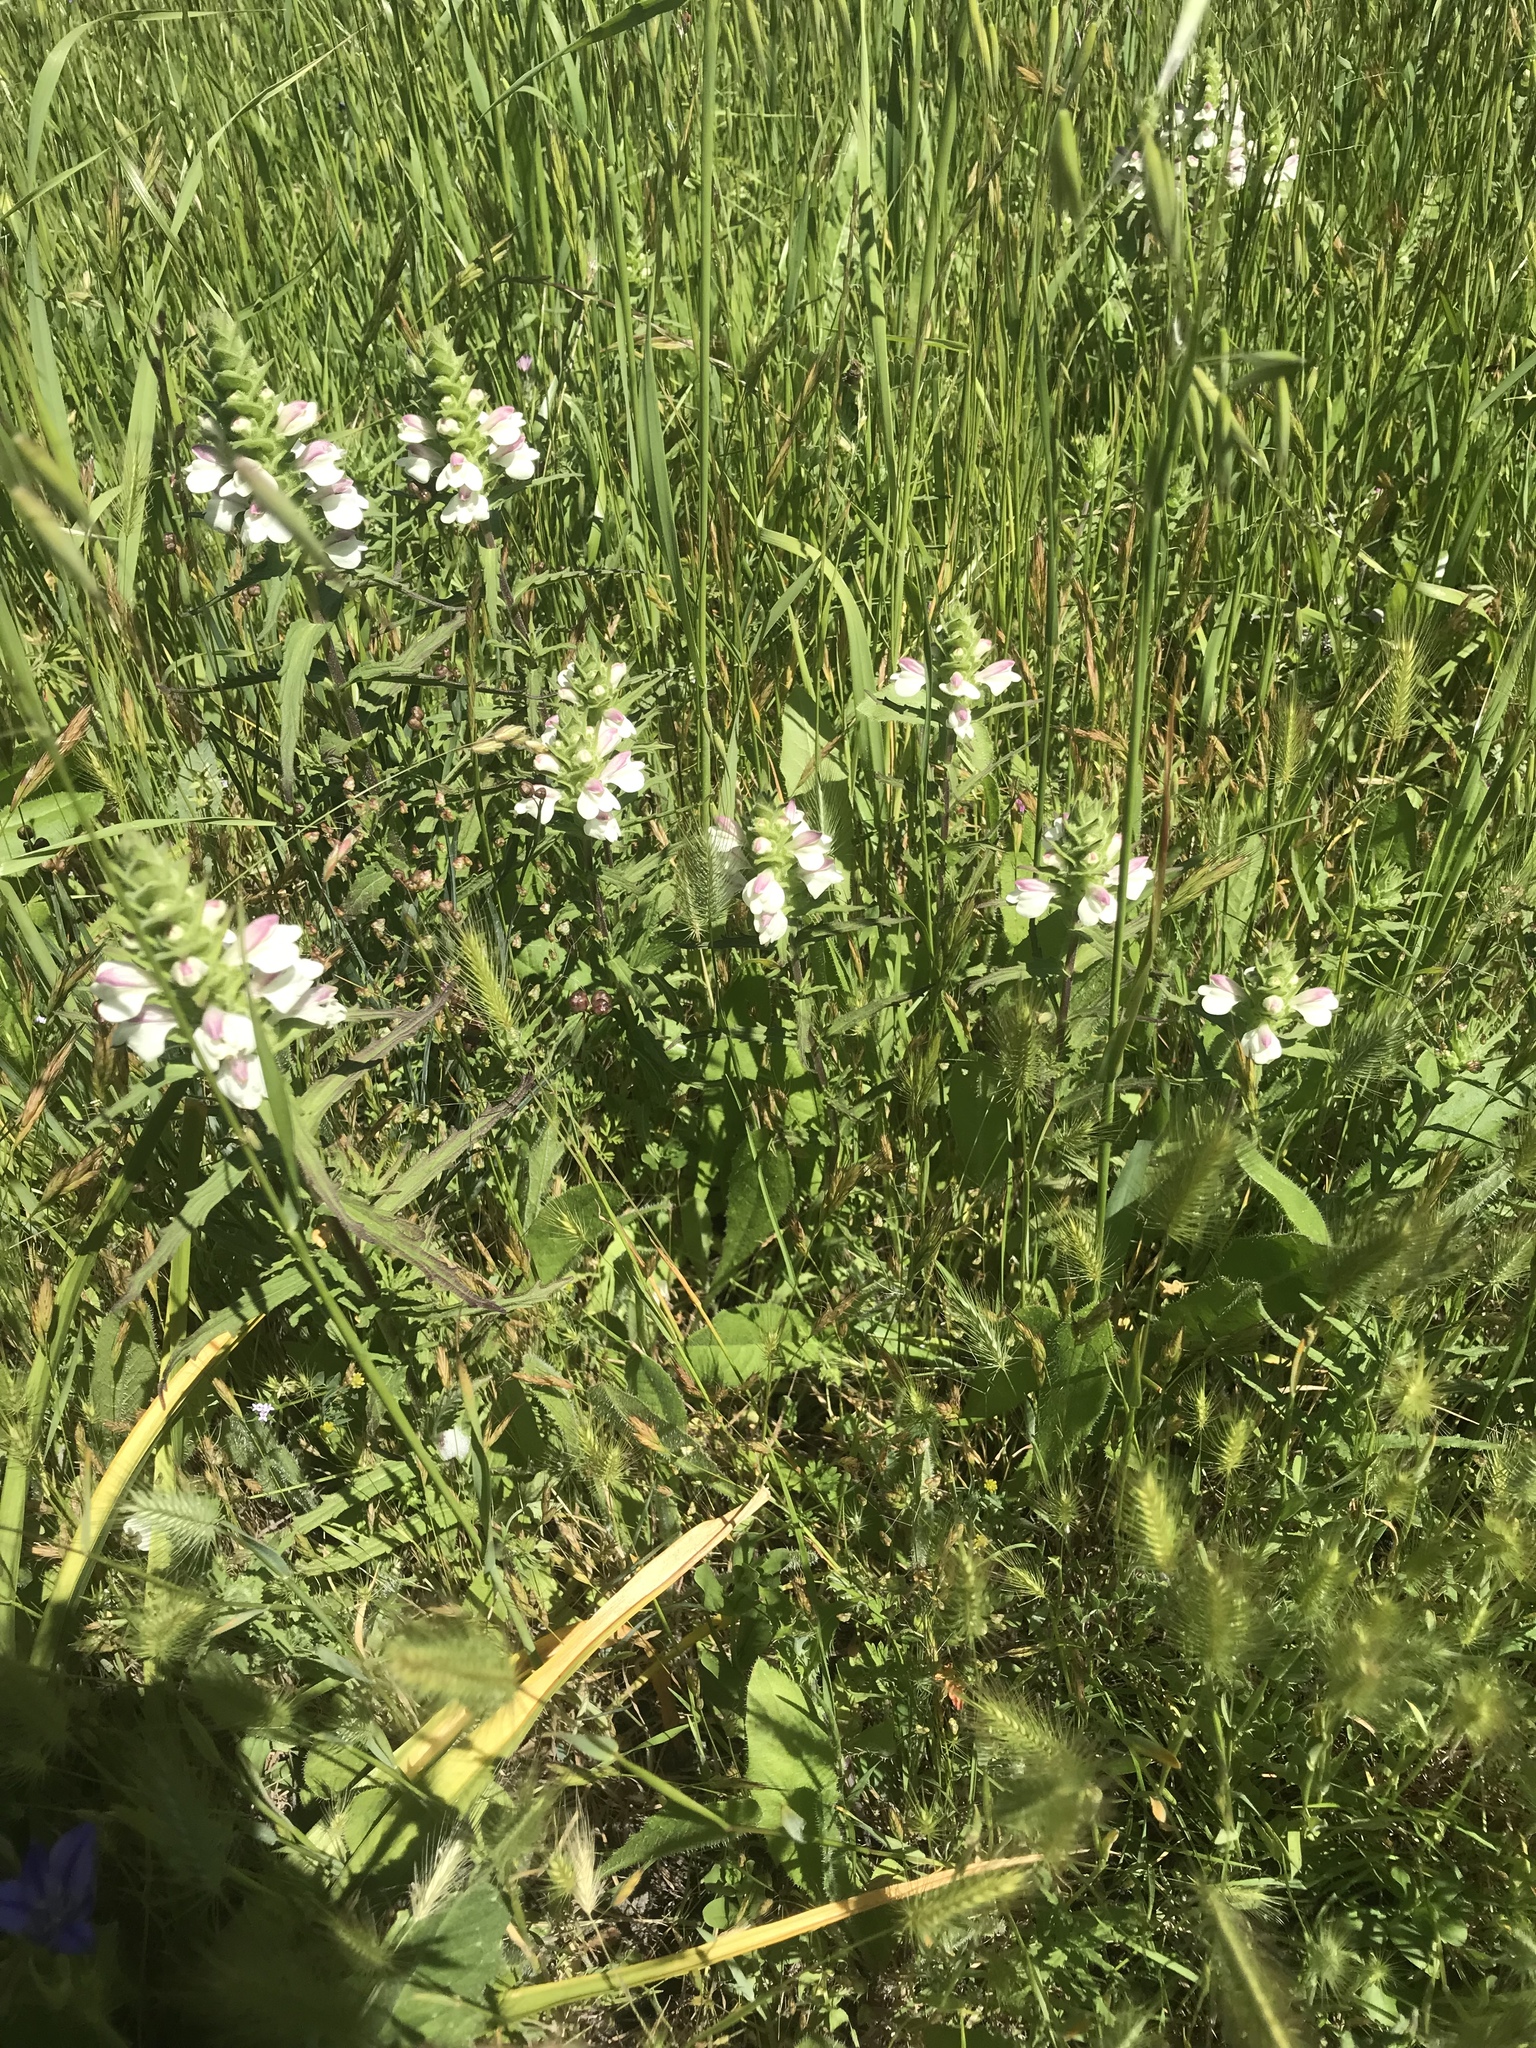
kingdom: Plantae
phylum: Tracheophyta
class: Magnoliopsida
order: Lamiales
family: Orobanchaceae
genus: Bellardia
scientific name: Bellardia trixago
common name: Mediterranean lineseed
